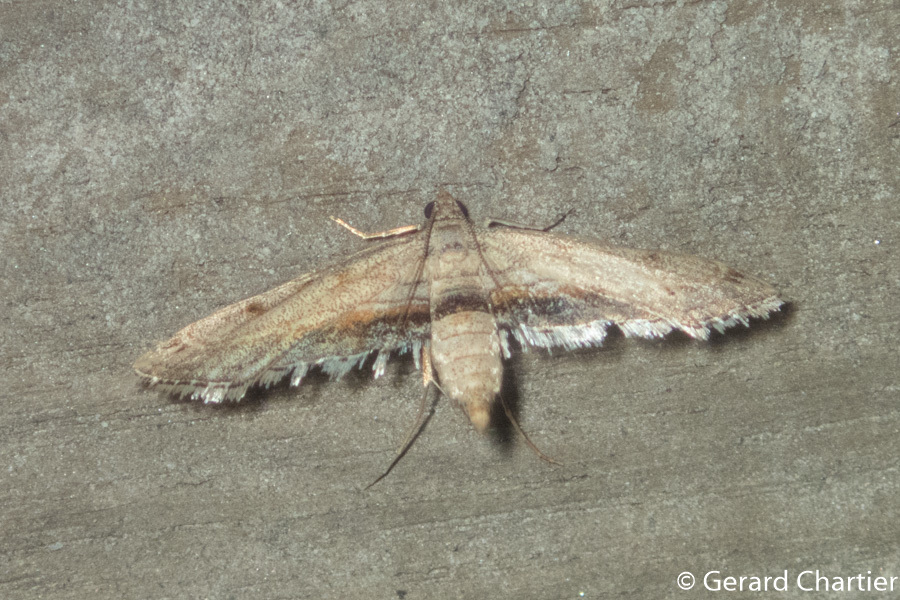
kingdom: Animalia
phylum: Arthropoda
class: Insecta
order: Lepidoptera
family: Crambidae
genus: Parapoynx
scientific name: Parapoynx longialata
